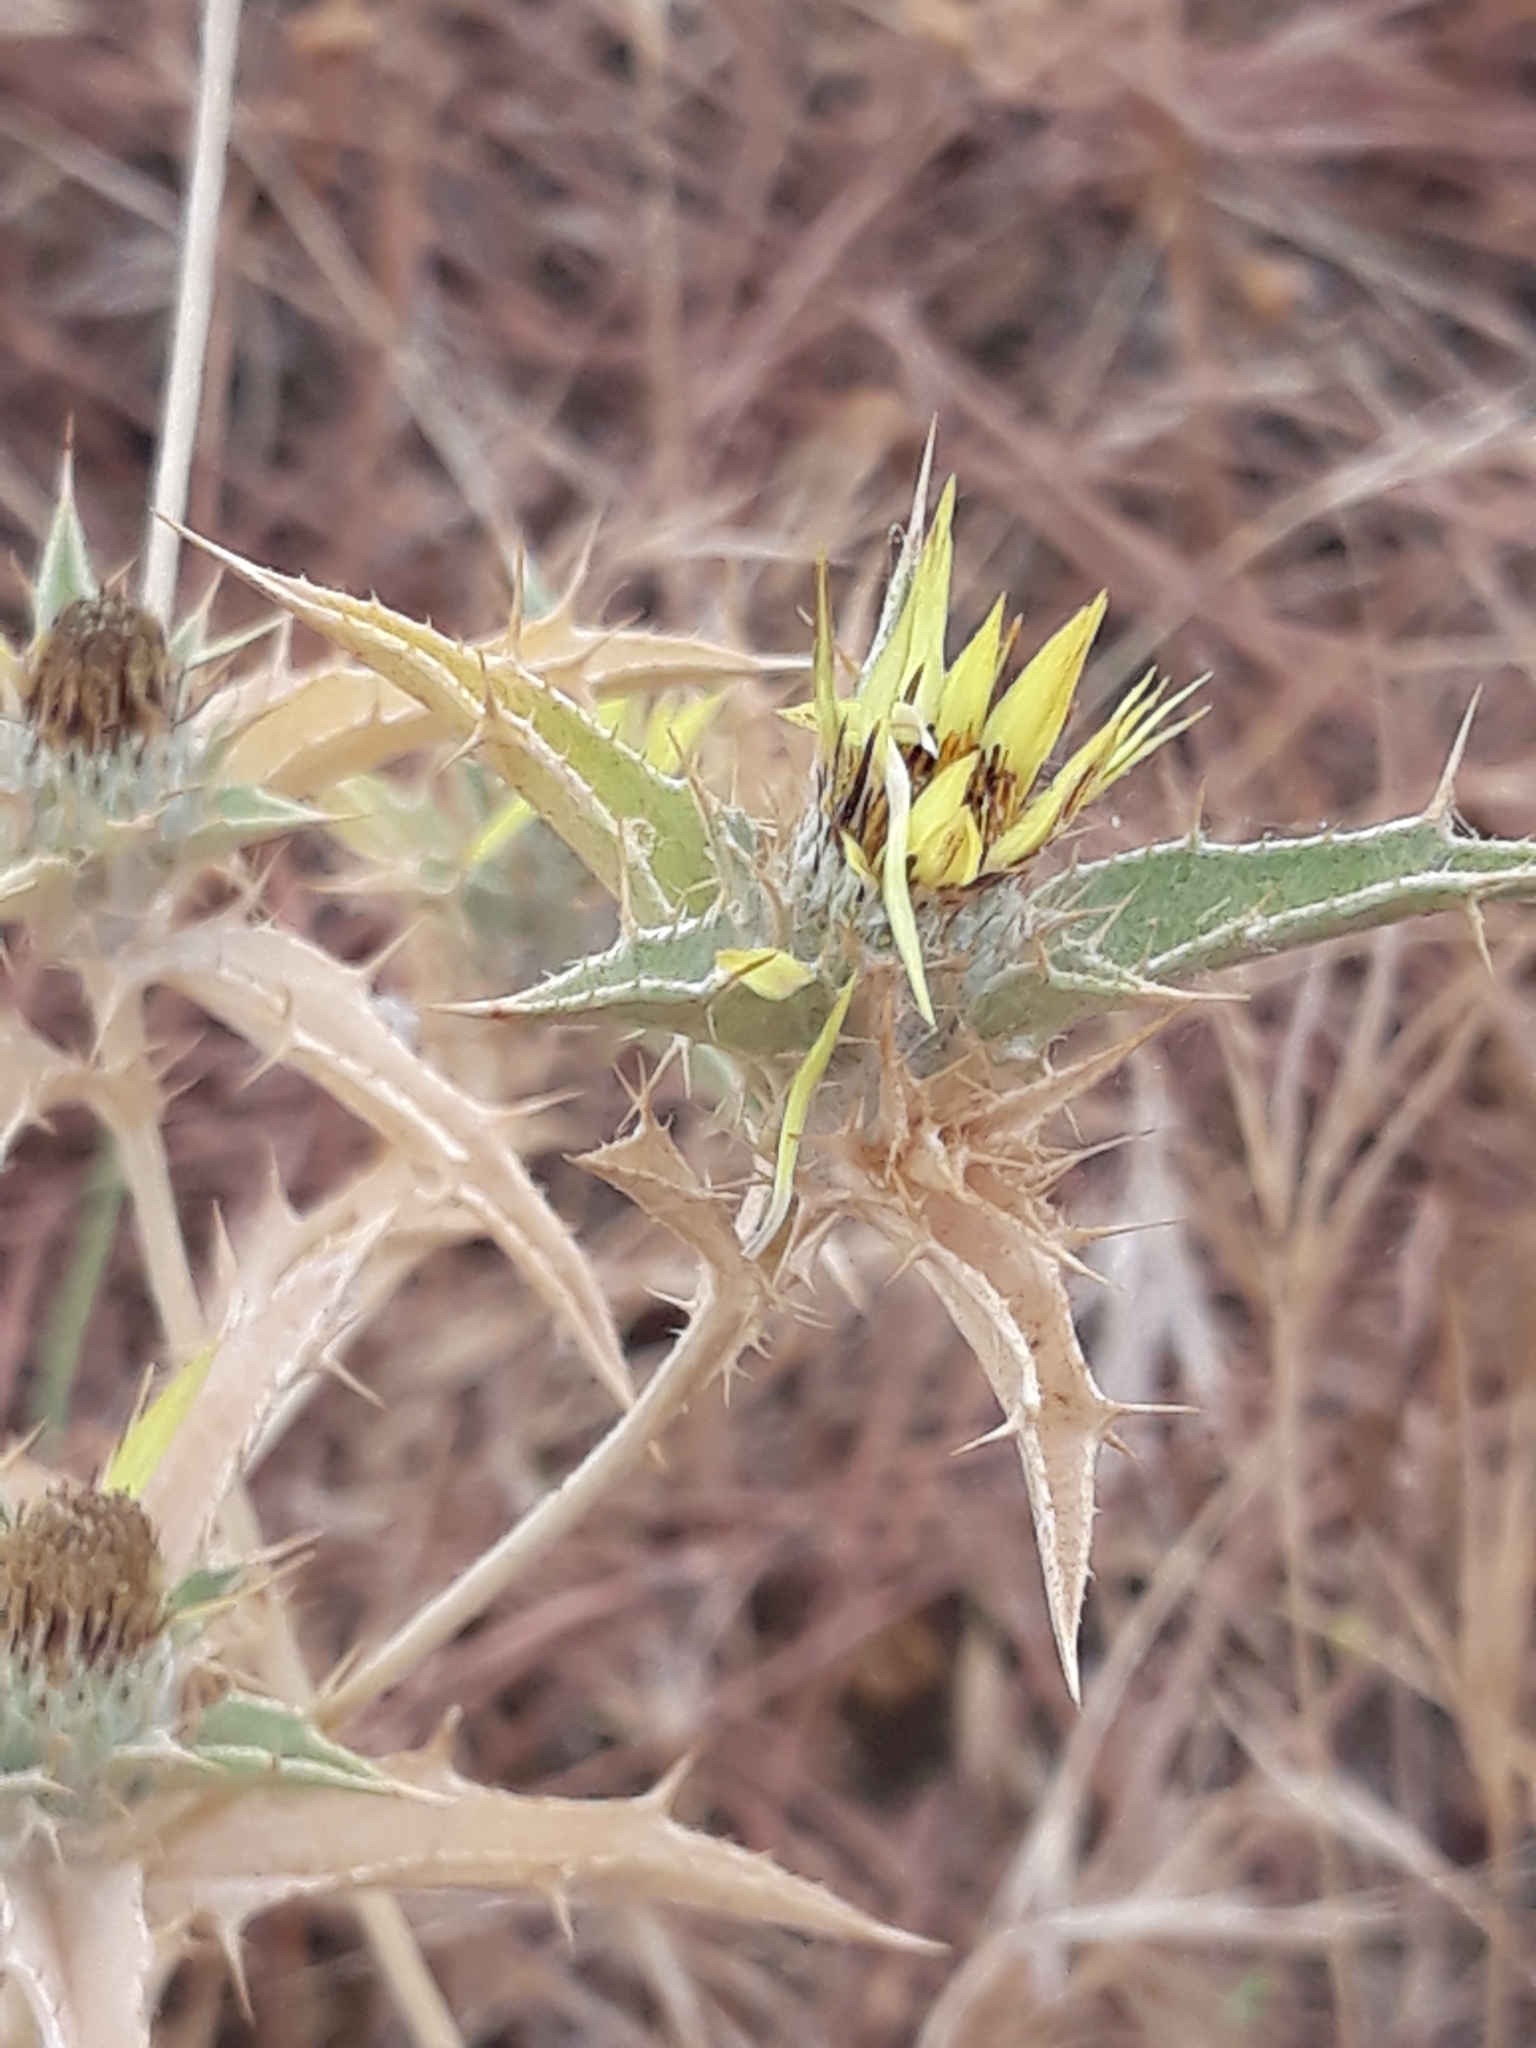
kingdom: Plantae
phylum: Tracheophyta
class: Magnoliopsida
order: Asterales
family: Asteraceae
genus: Carlina
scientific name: Carlina racemosa
